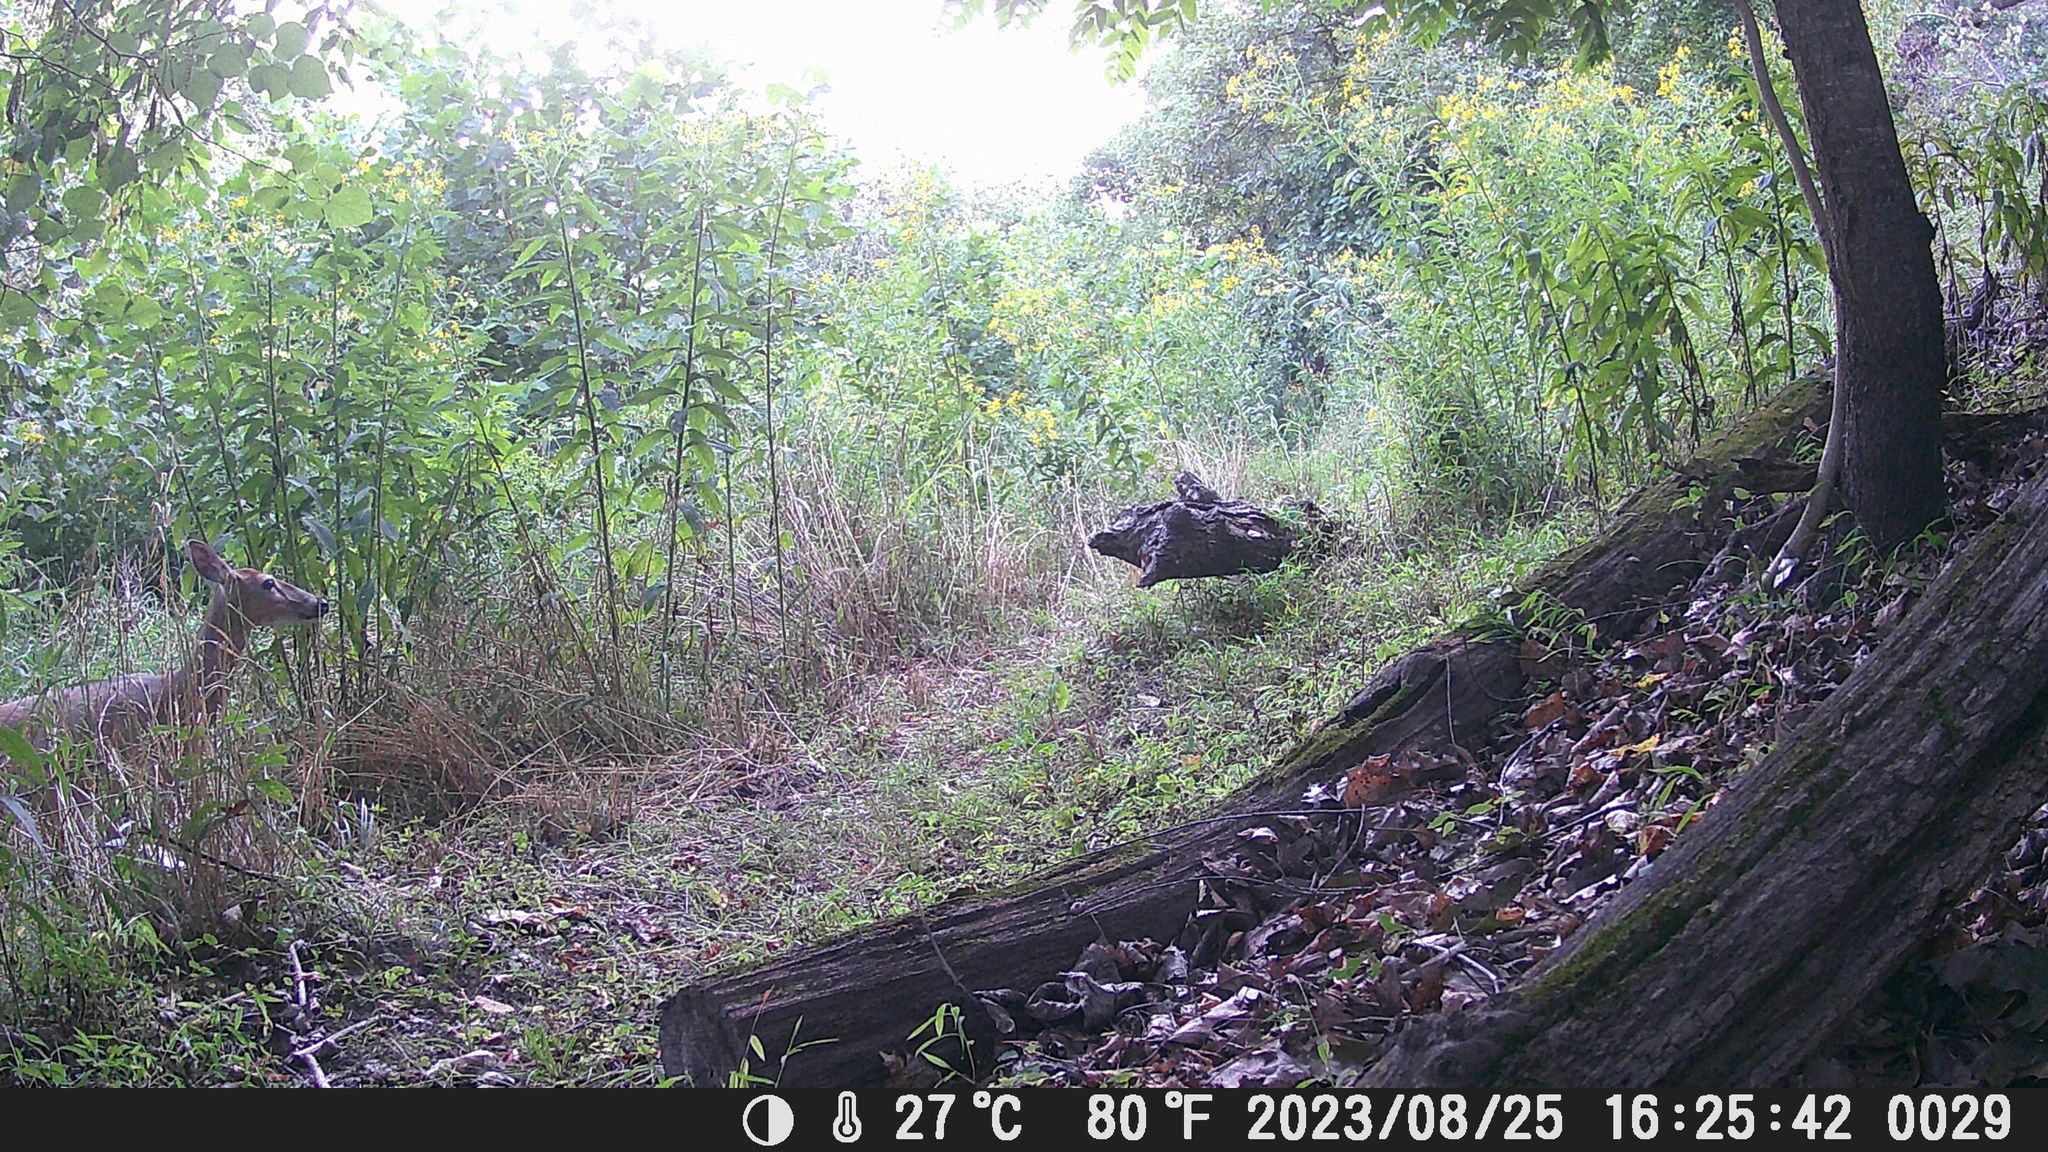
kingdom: Animalia
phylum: Chordata
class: Mammalia
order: Artiodactyla
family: Cervidae
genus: Odocoileus
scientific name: Odocoileus virginianus
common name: White-tailed deer
